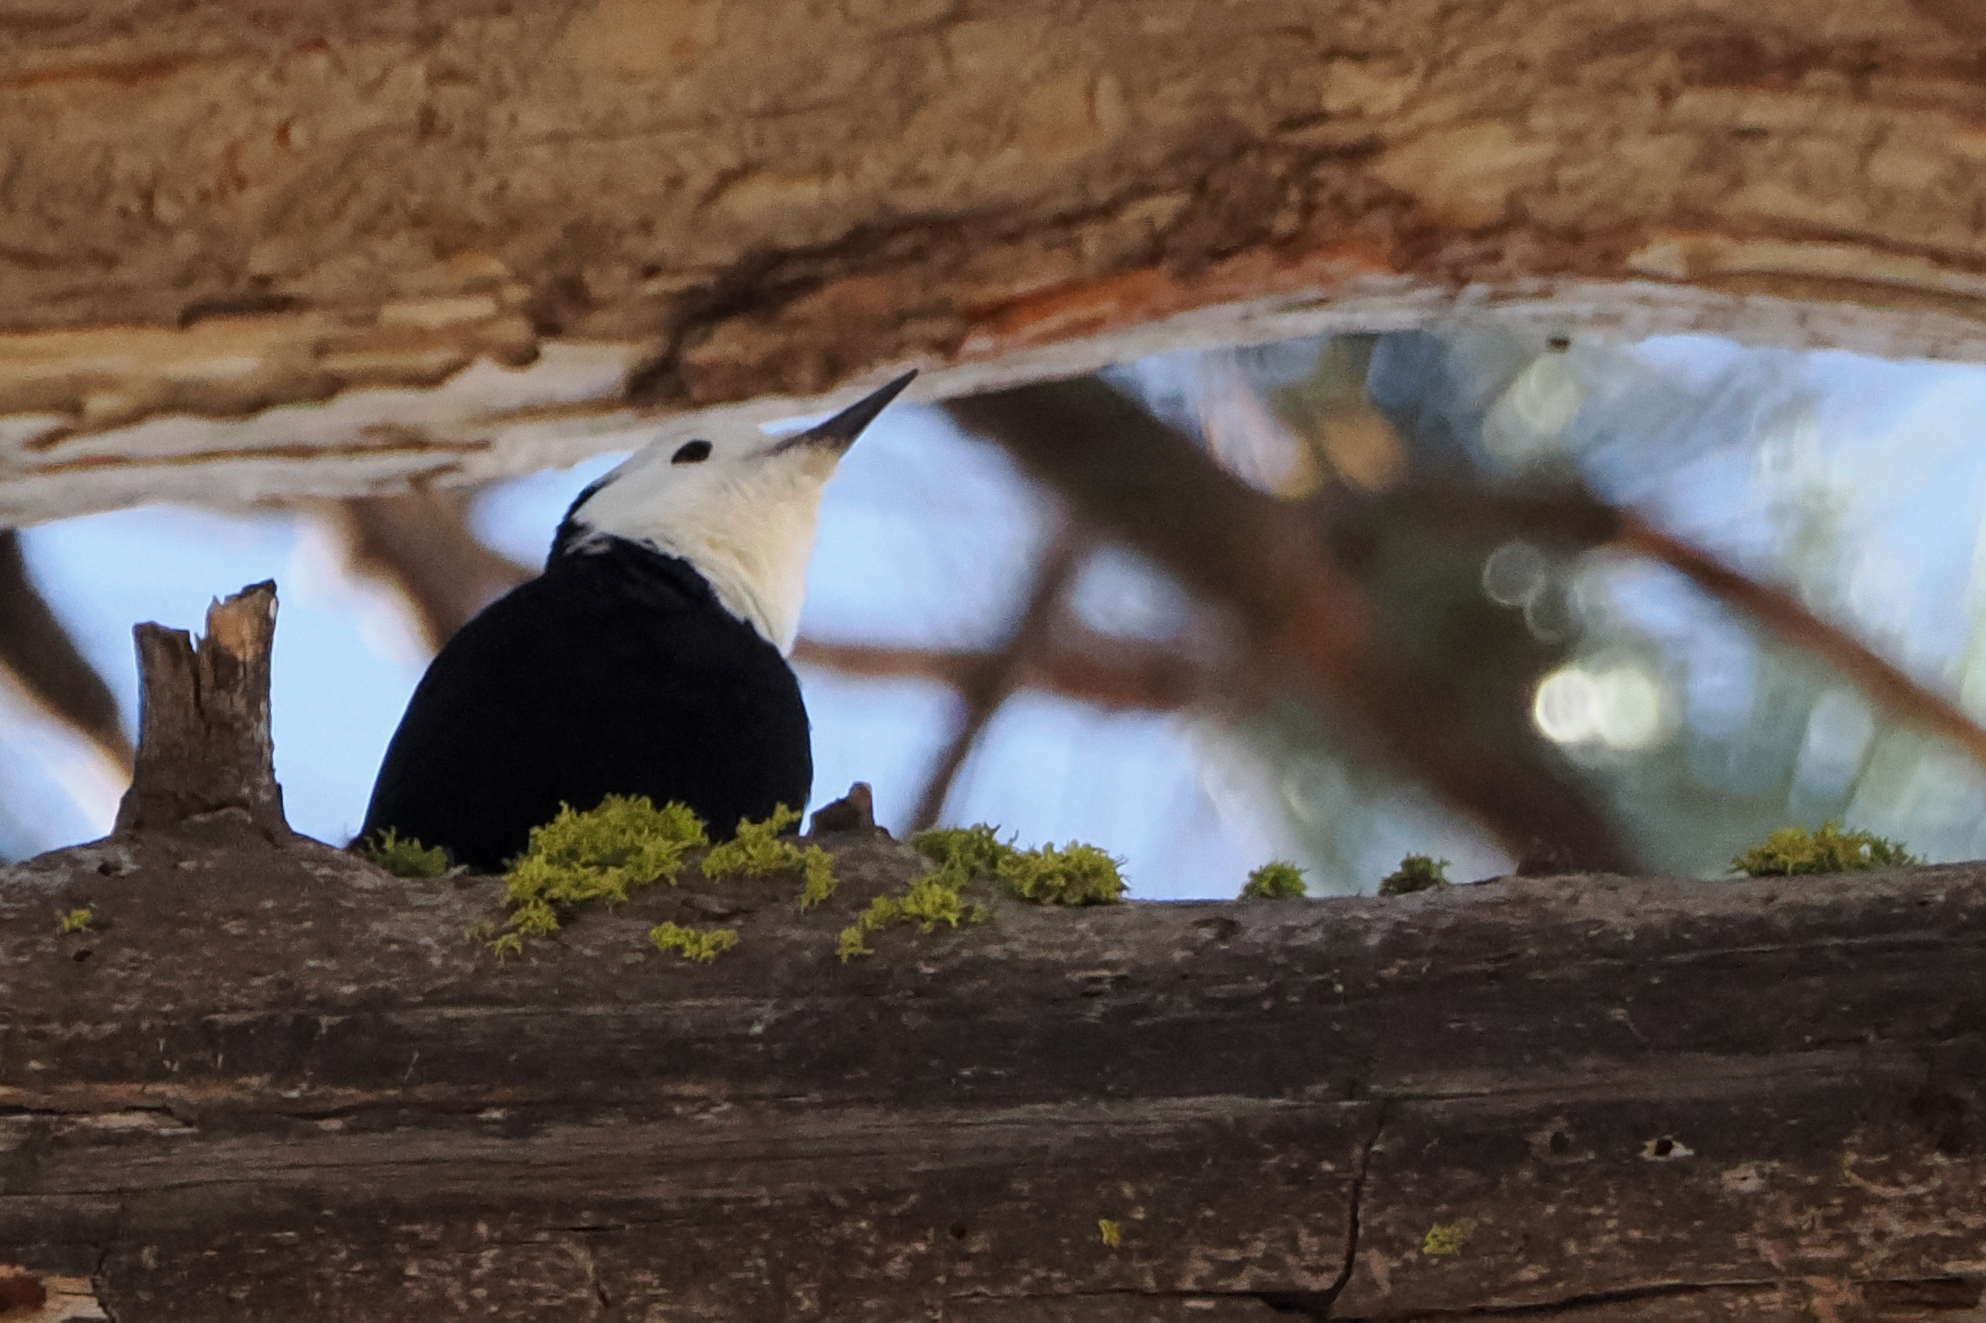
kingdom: Animalia
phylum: Chordata
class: Aves
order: Piciformes
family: Picidae
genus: Leuconotopicus
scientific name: Leuconotopicus albolarvatus
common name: White-headed woodpecker
